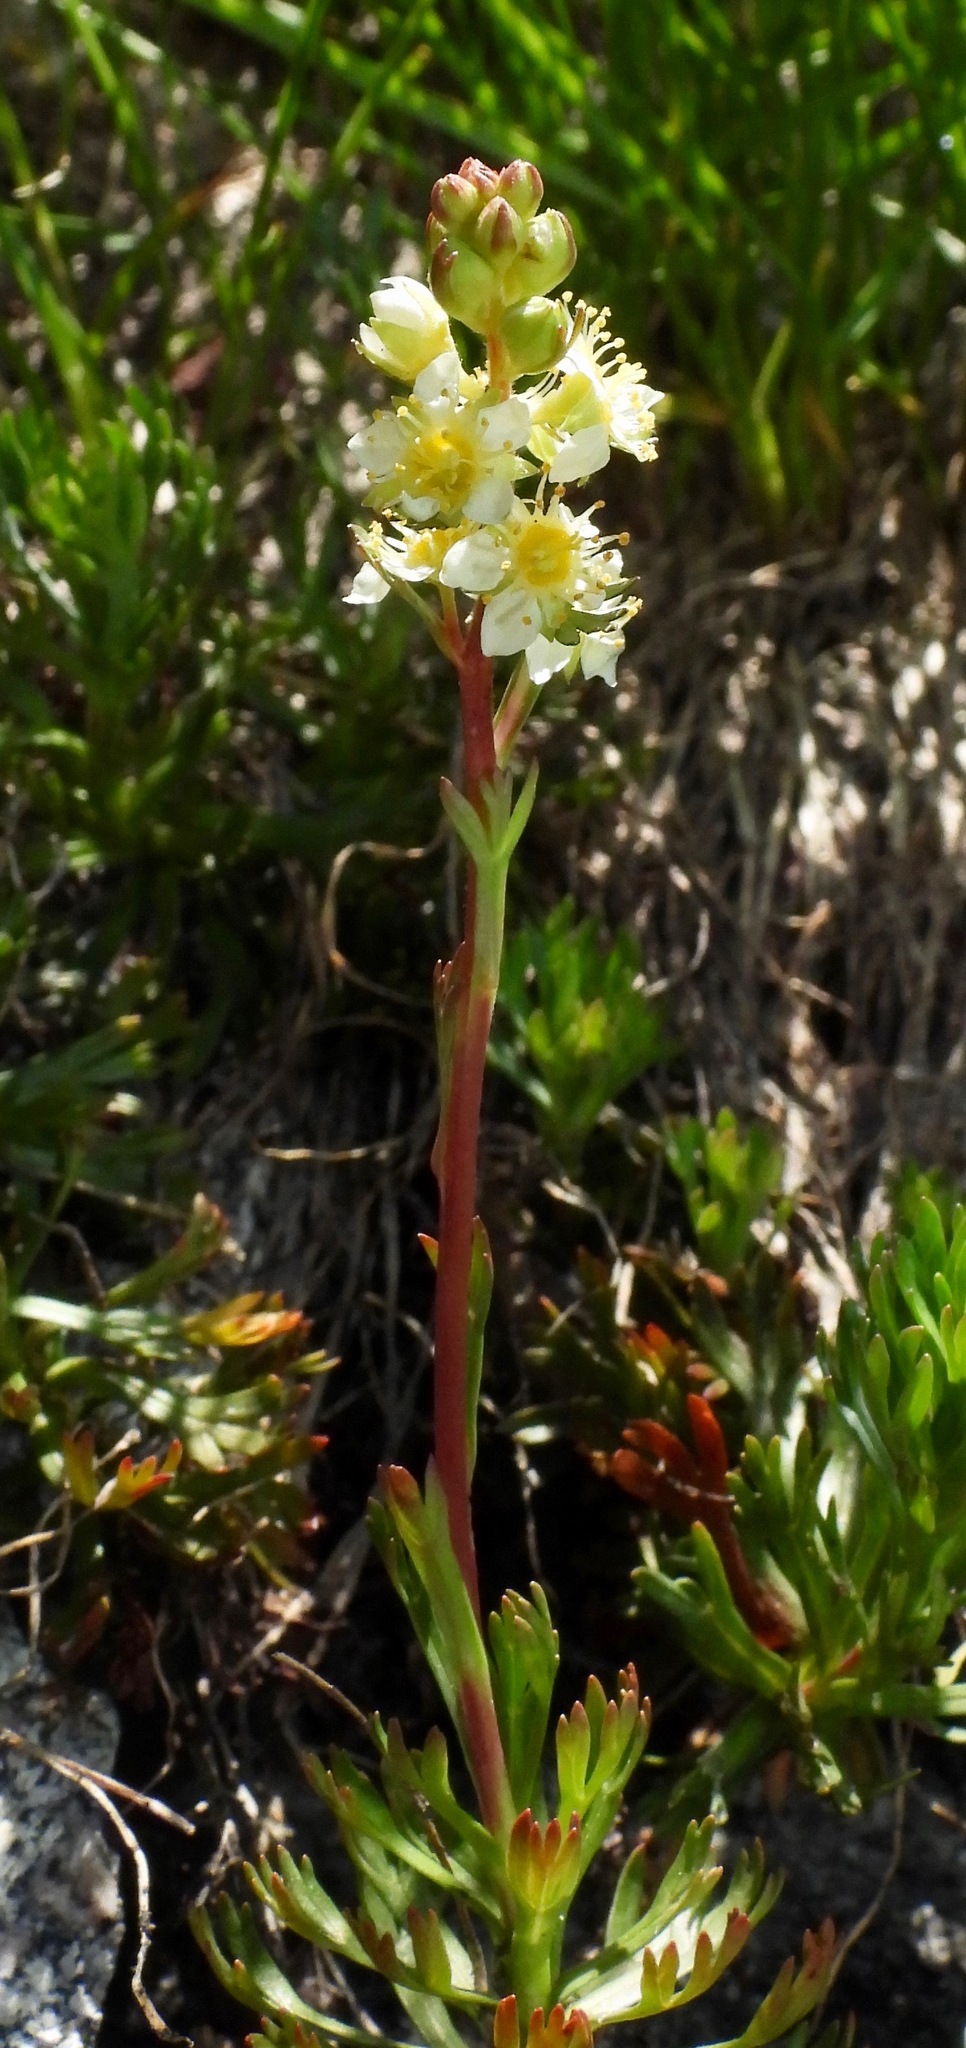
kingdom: Plantae
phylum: Tracheophyta
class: Magnoliopsida
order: Rosales
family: Rosaceae
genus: Luetkea
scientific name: Luetkea pectinata
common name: Partridgefoot
